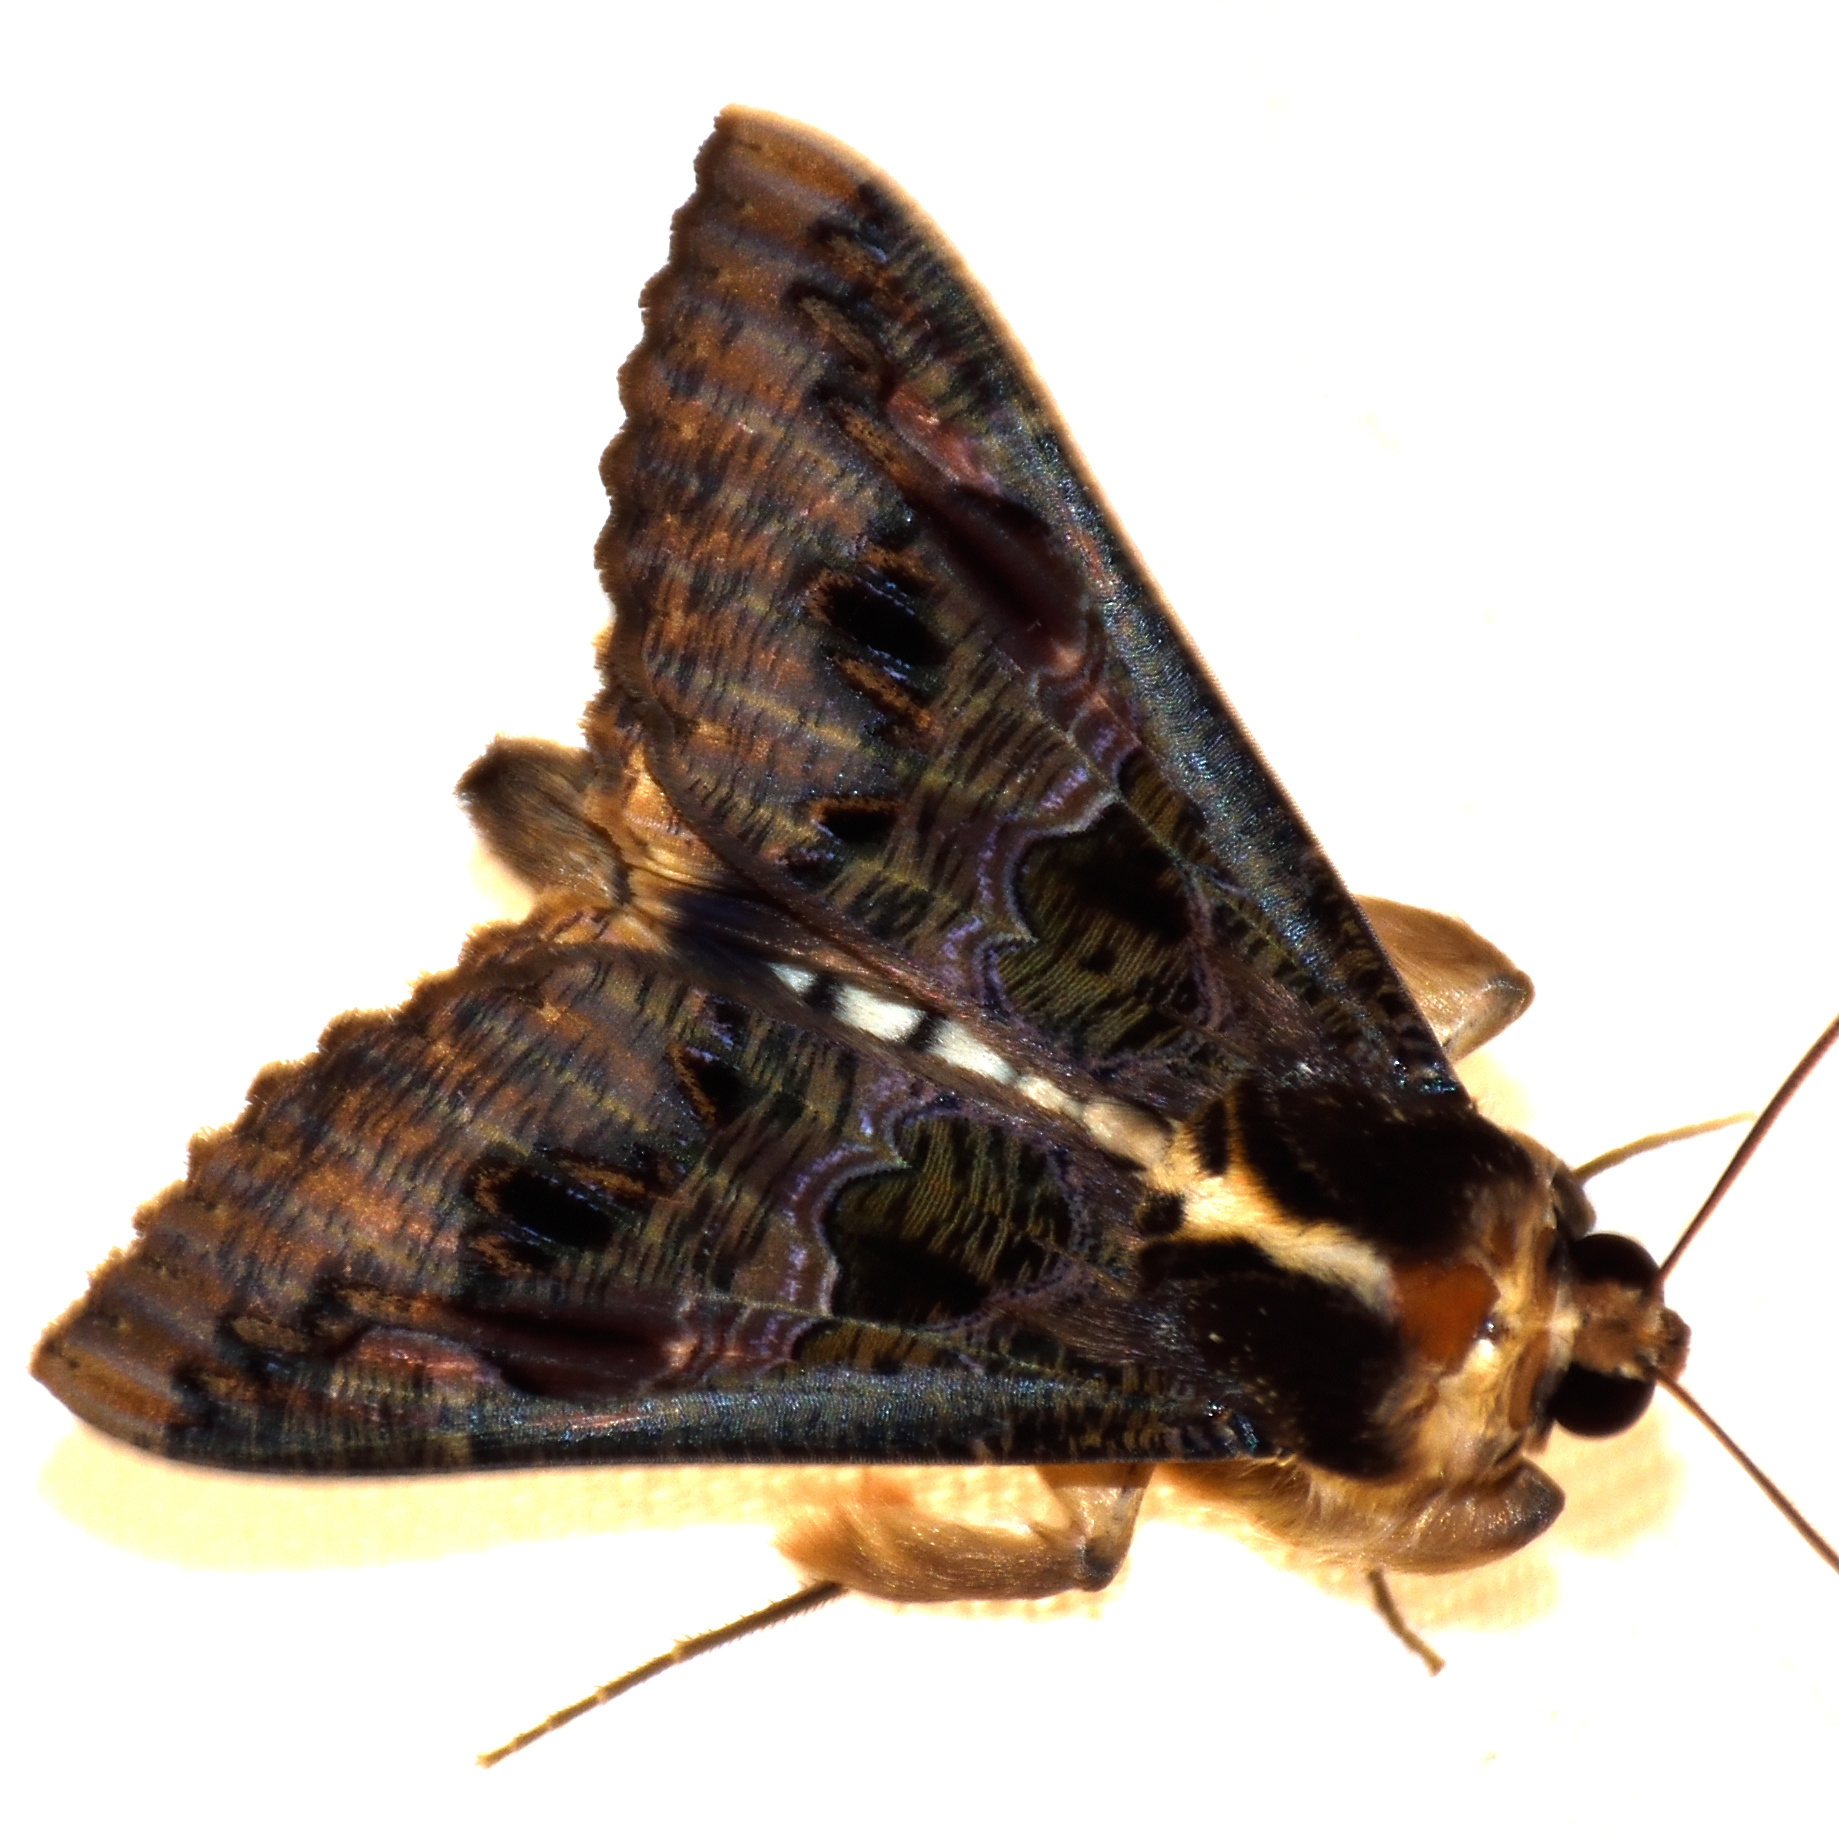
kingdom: Animalia
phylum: Arthropoda
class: Insecta
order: Lepidoptera
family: Erebidae
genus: Sphingomorpha
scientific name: Sphingomorpha chlorea
